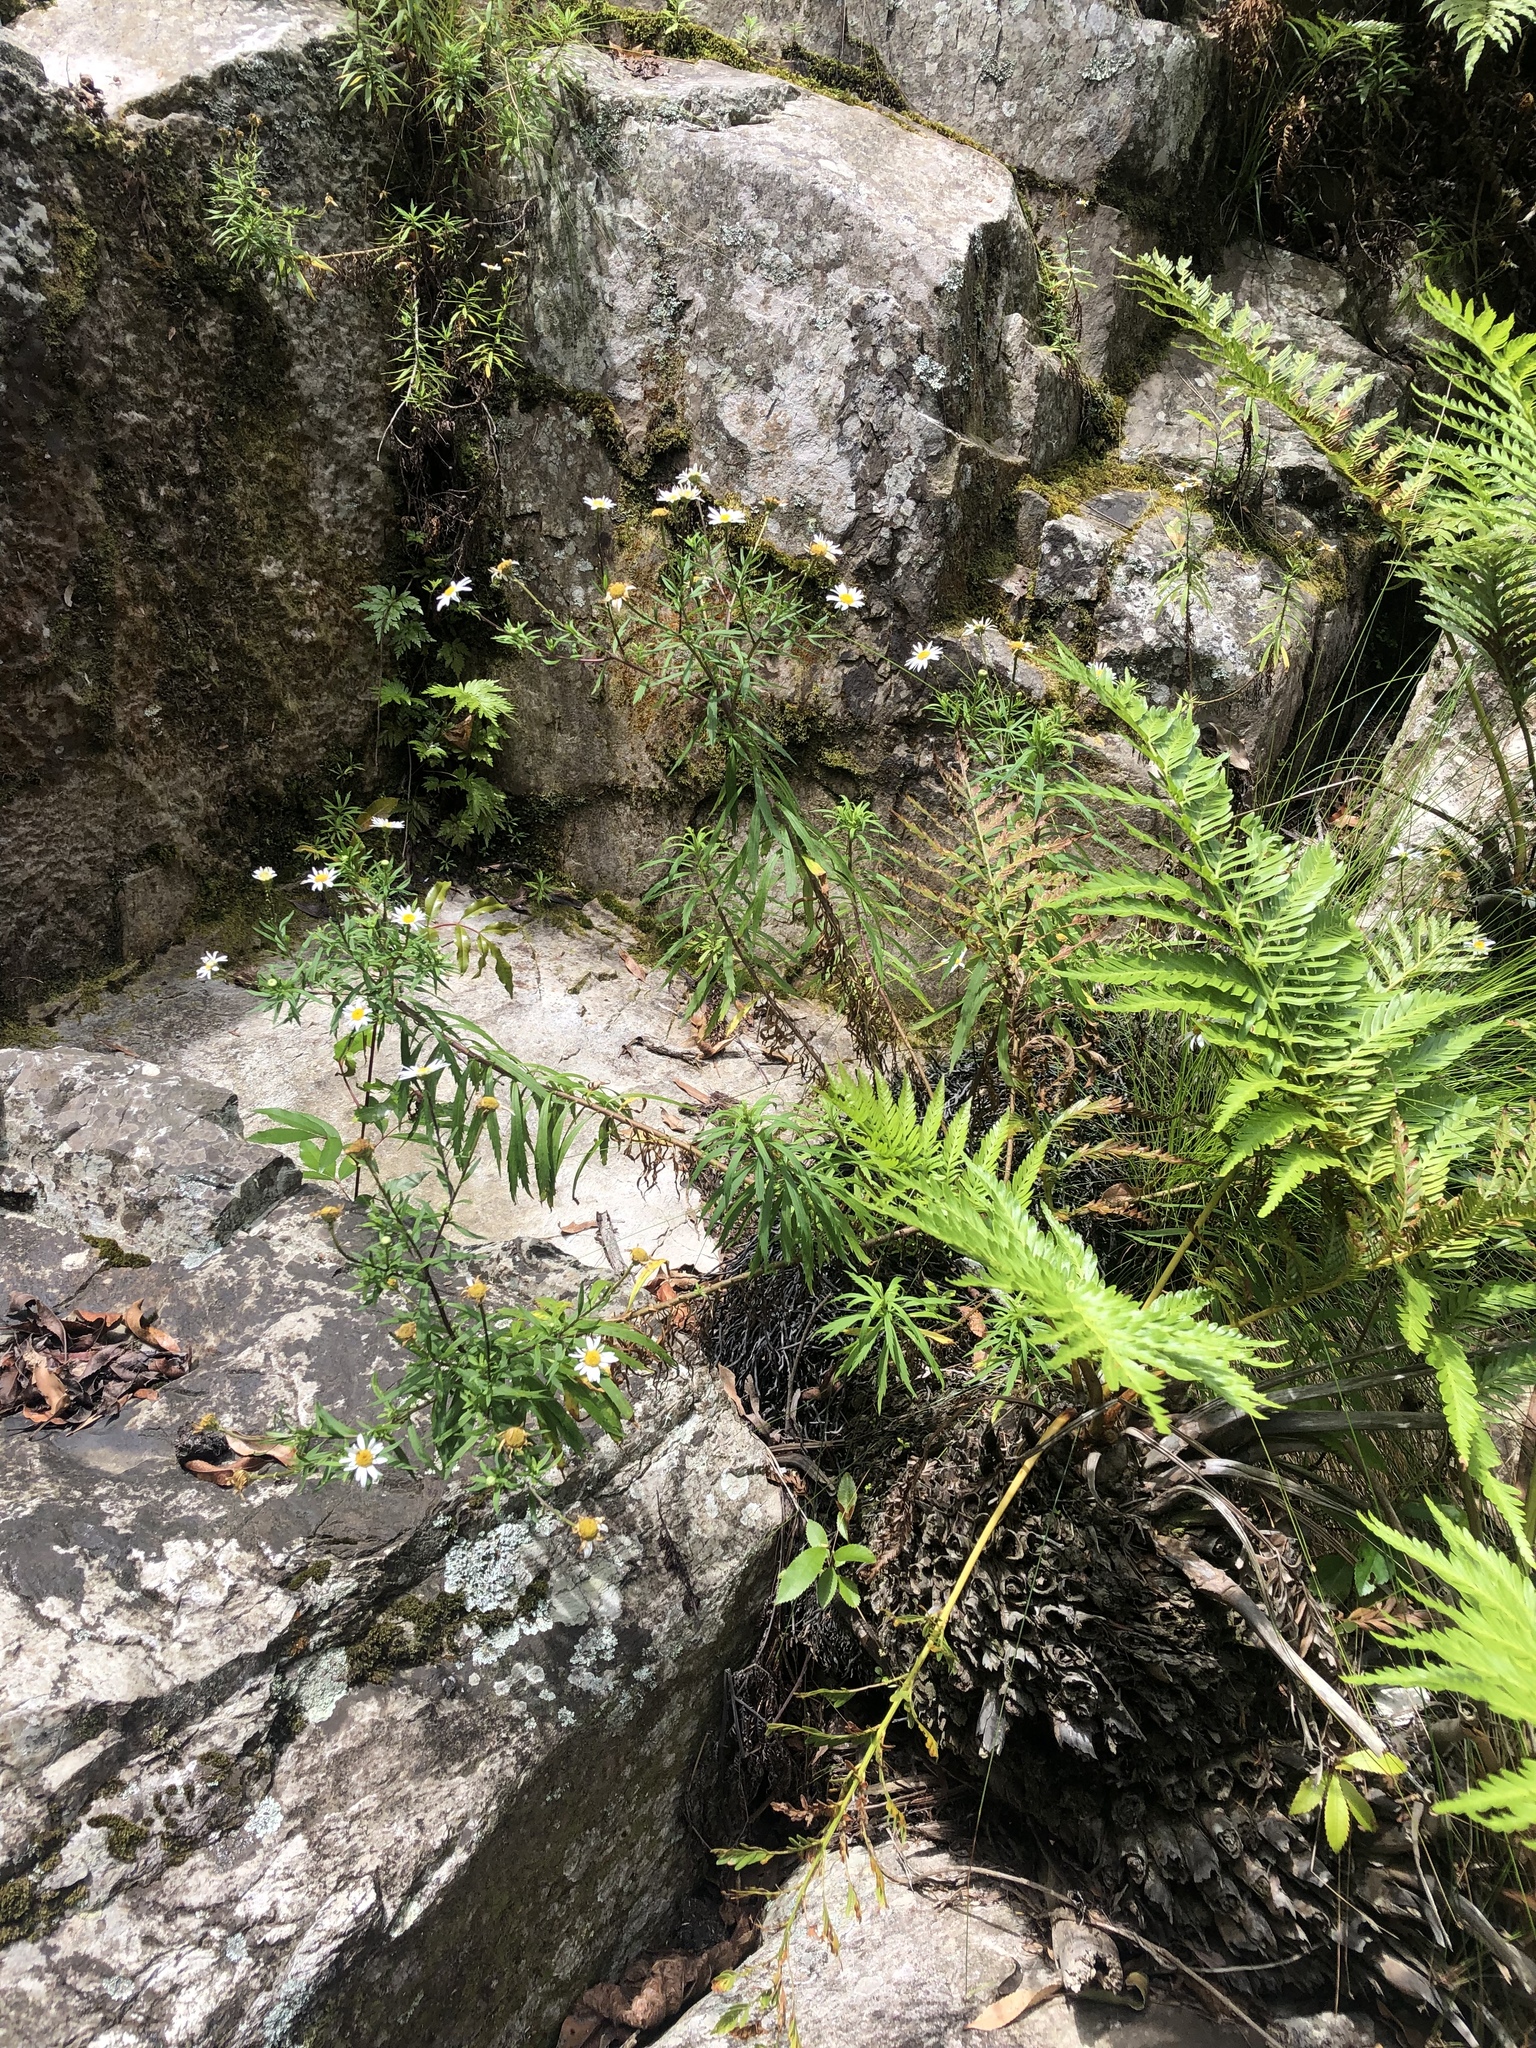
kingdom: Plantae
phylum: Tracheophyta
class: Magnoliopsida
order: Asterales
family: Asteraceae
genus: Osmitopsis
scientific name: Osmitopsis osmitoides
